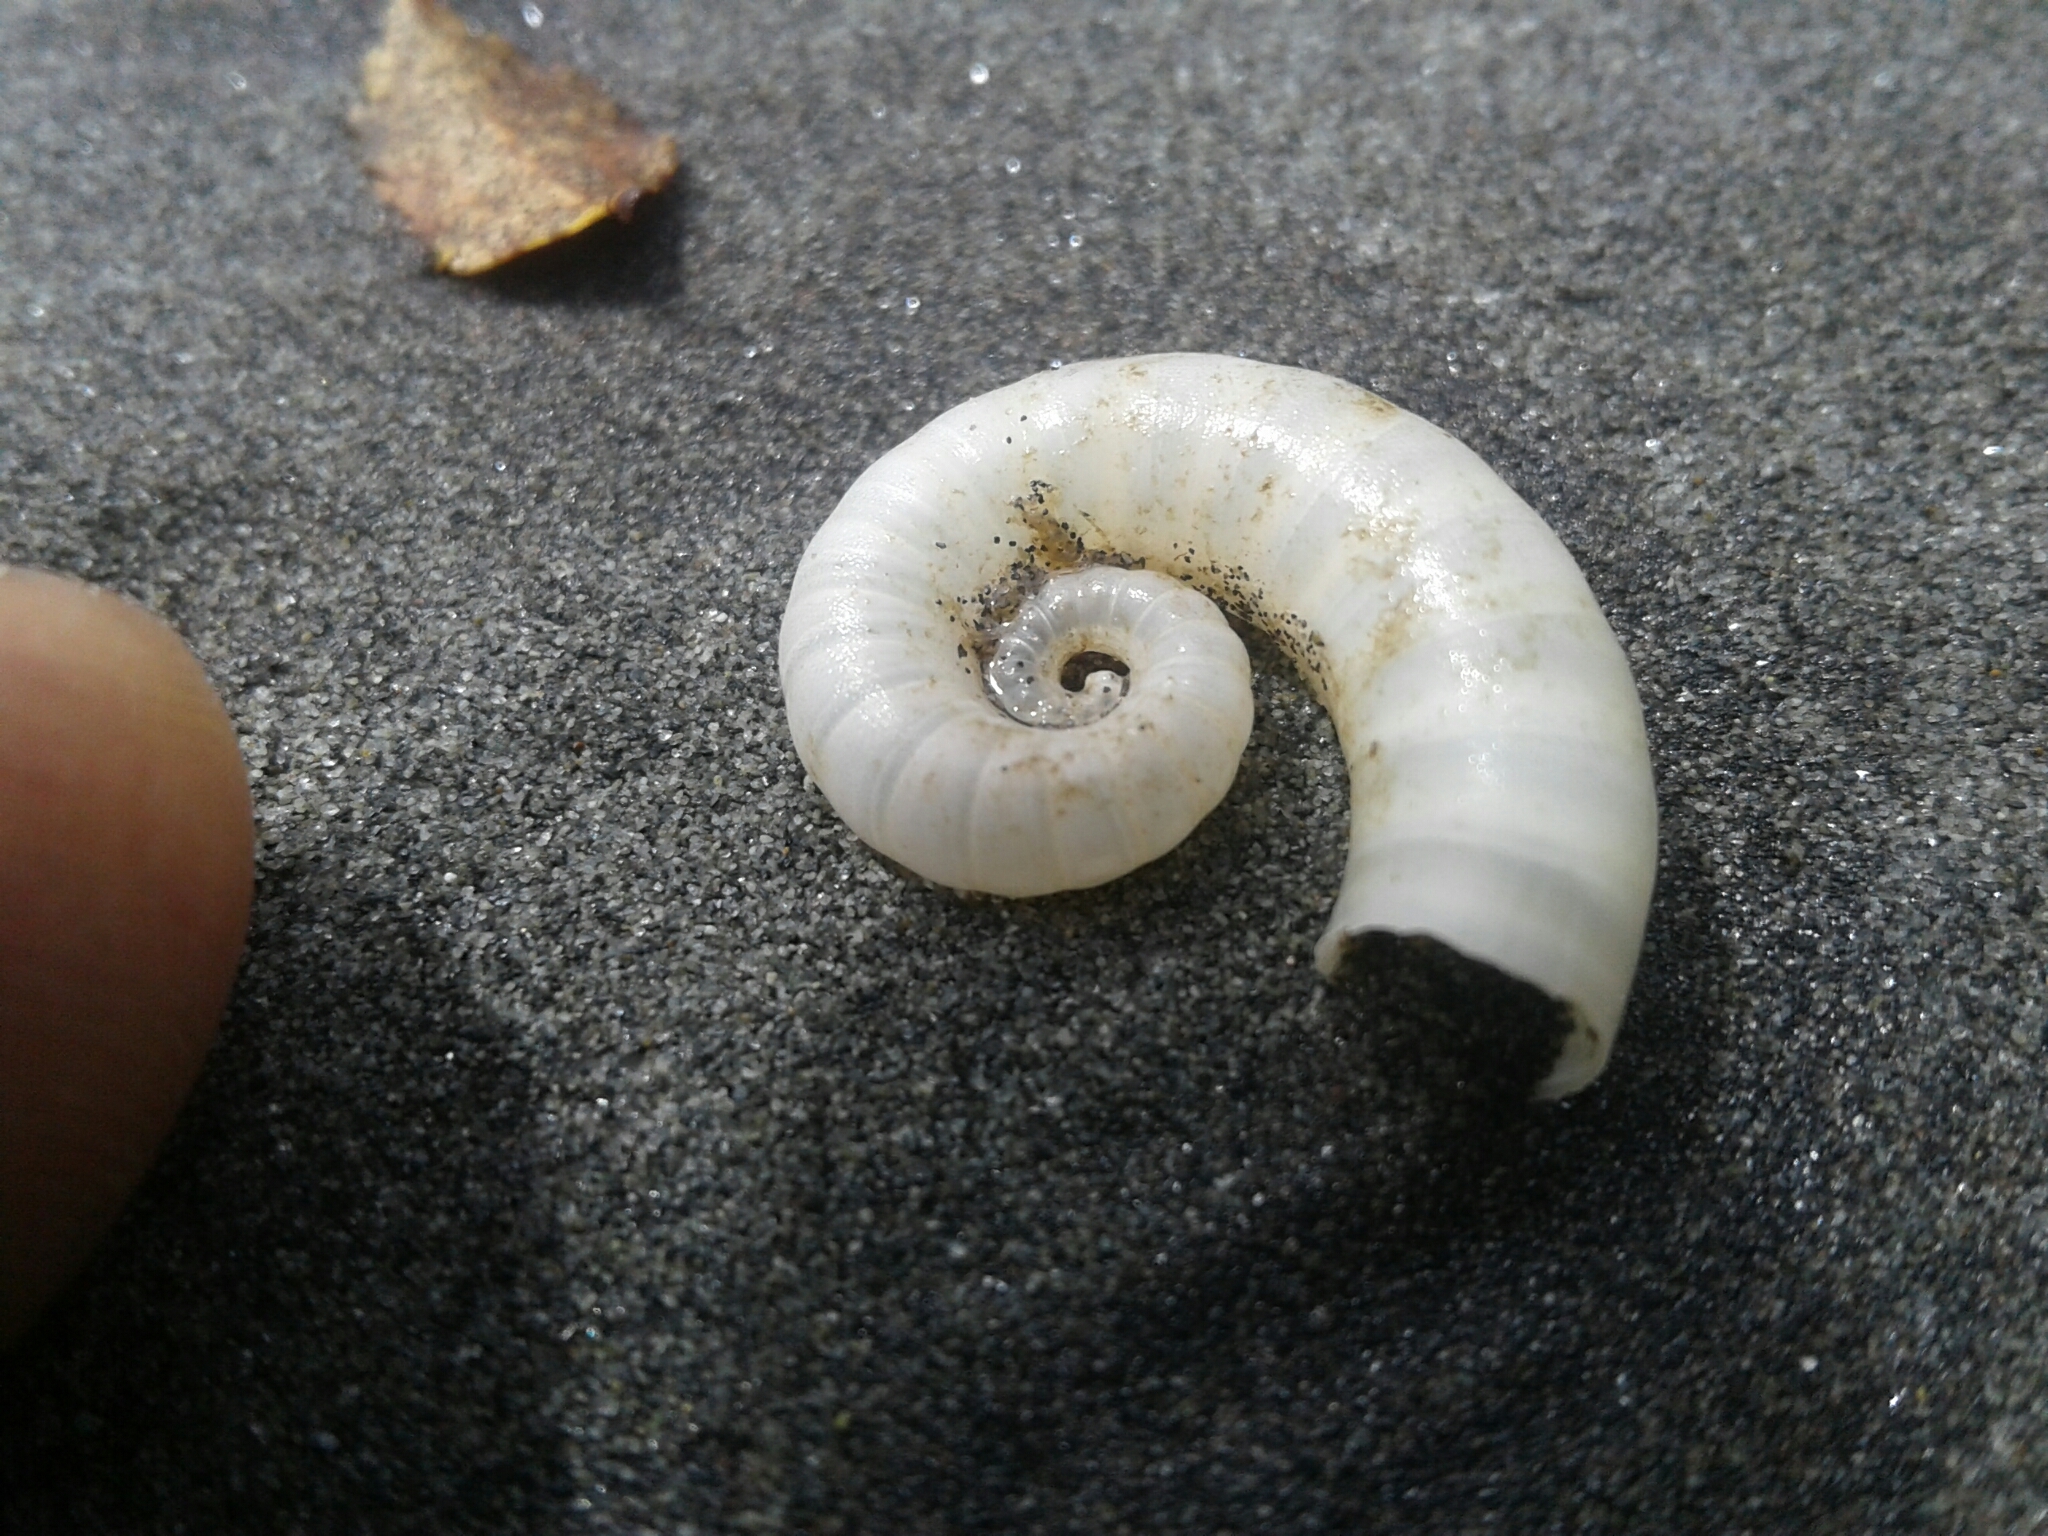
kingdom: Animalia
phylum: Mollusca
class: Cephalopoda
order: Spirulida
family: Spirulidae
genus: Spirula
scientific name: Spirula spirula
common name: Ram's horn squid
